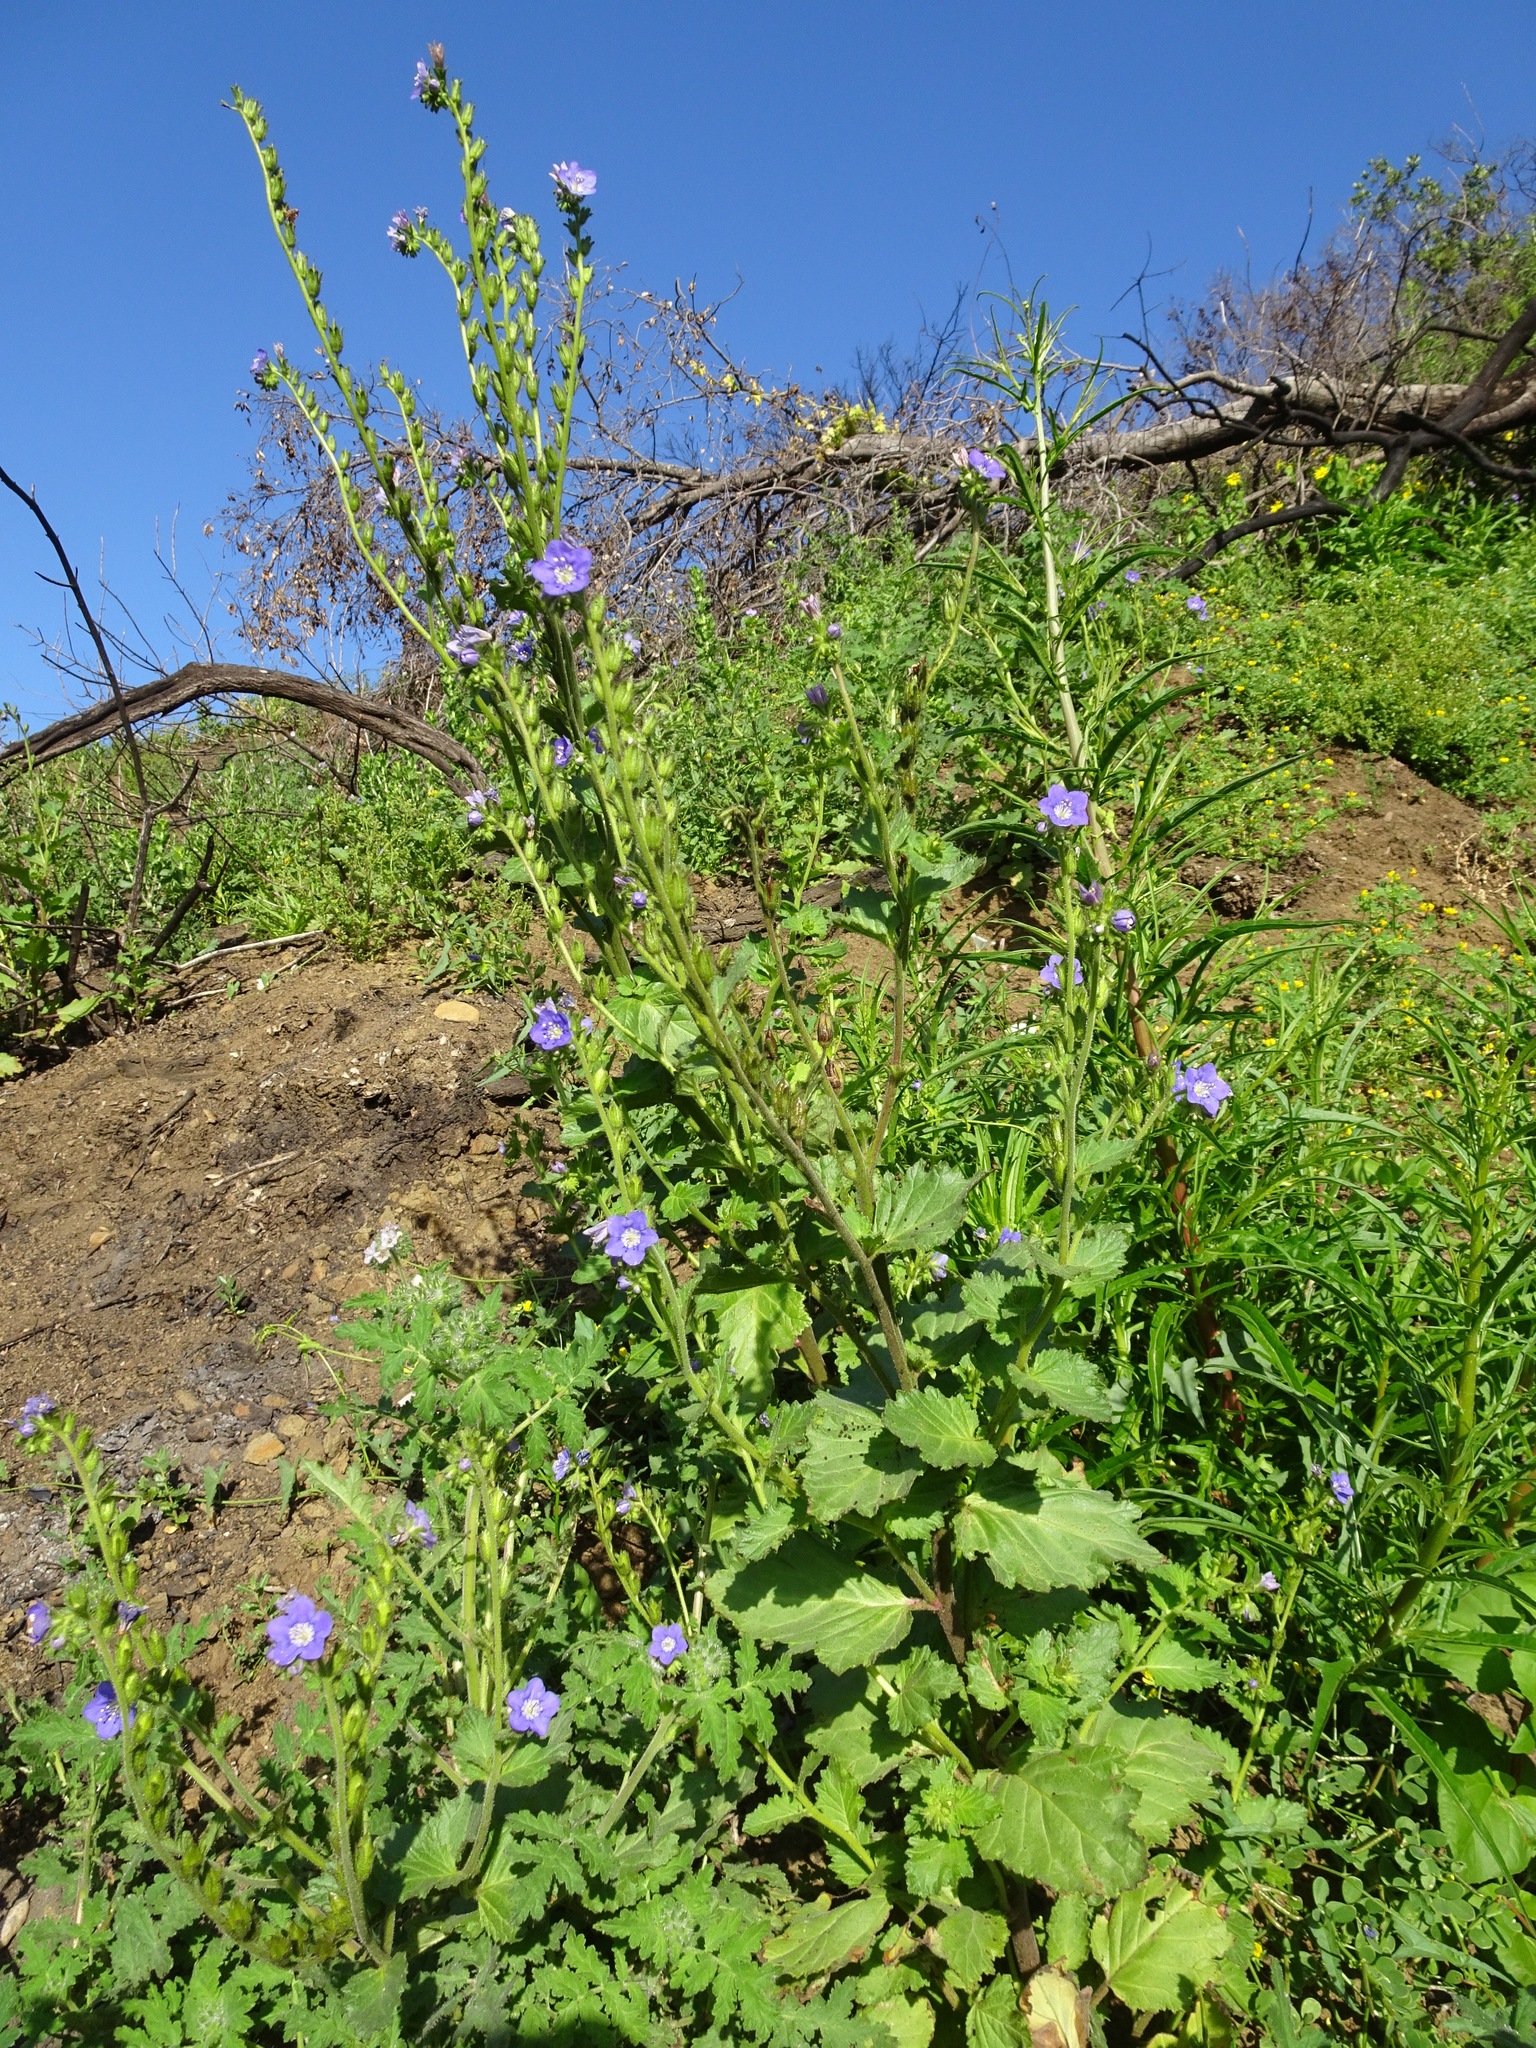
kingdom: Plantae
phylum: Tracheophyta
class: Magnoliopsida
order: Boraginales
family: Hydrophyllaceae
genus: Phacelia
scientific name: Phacelia viscida
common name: Sticky phacelia
